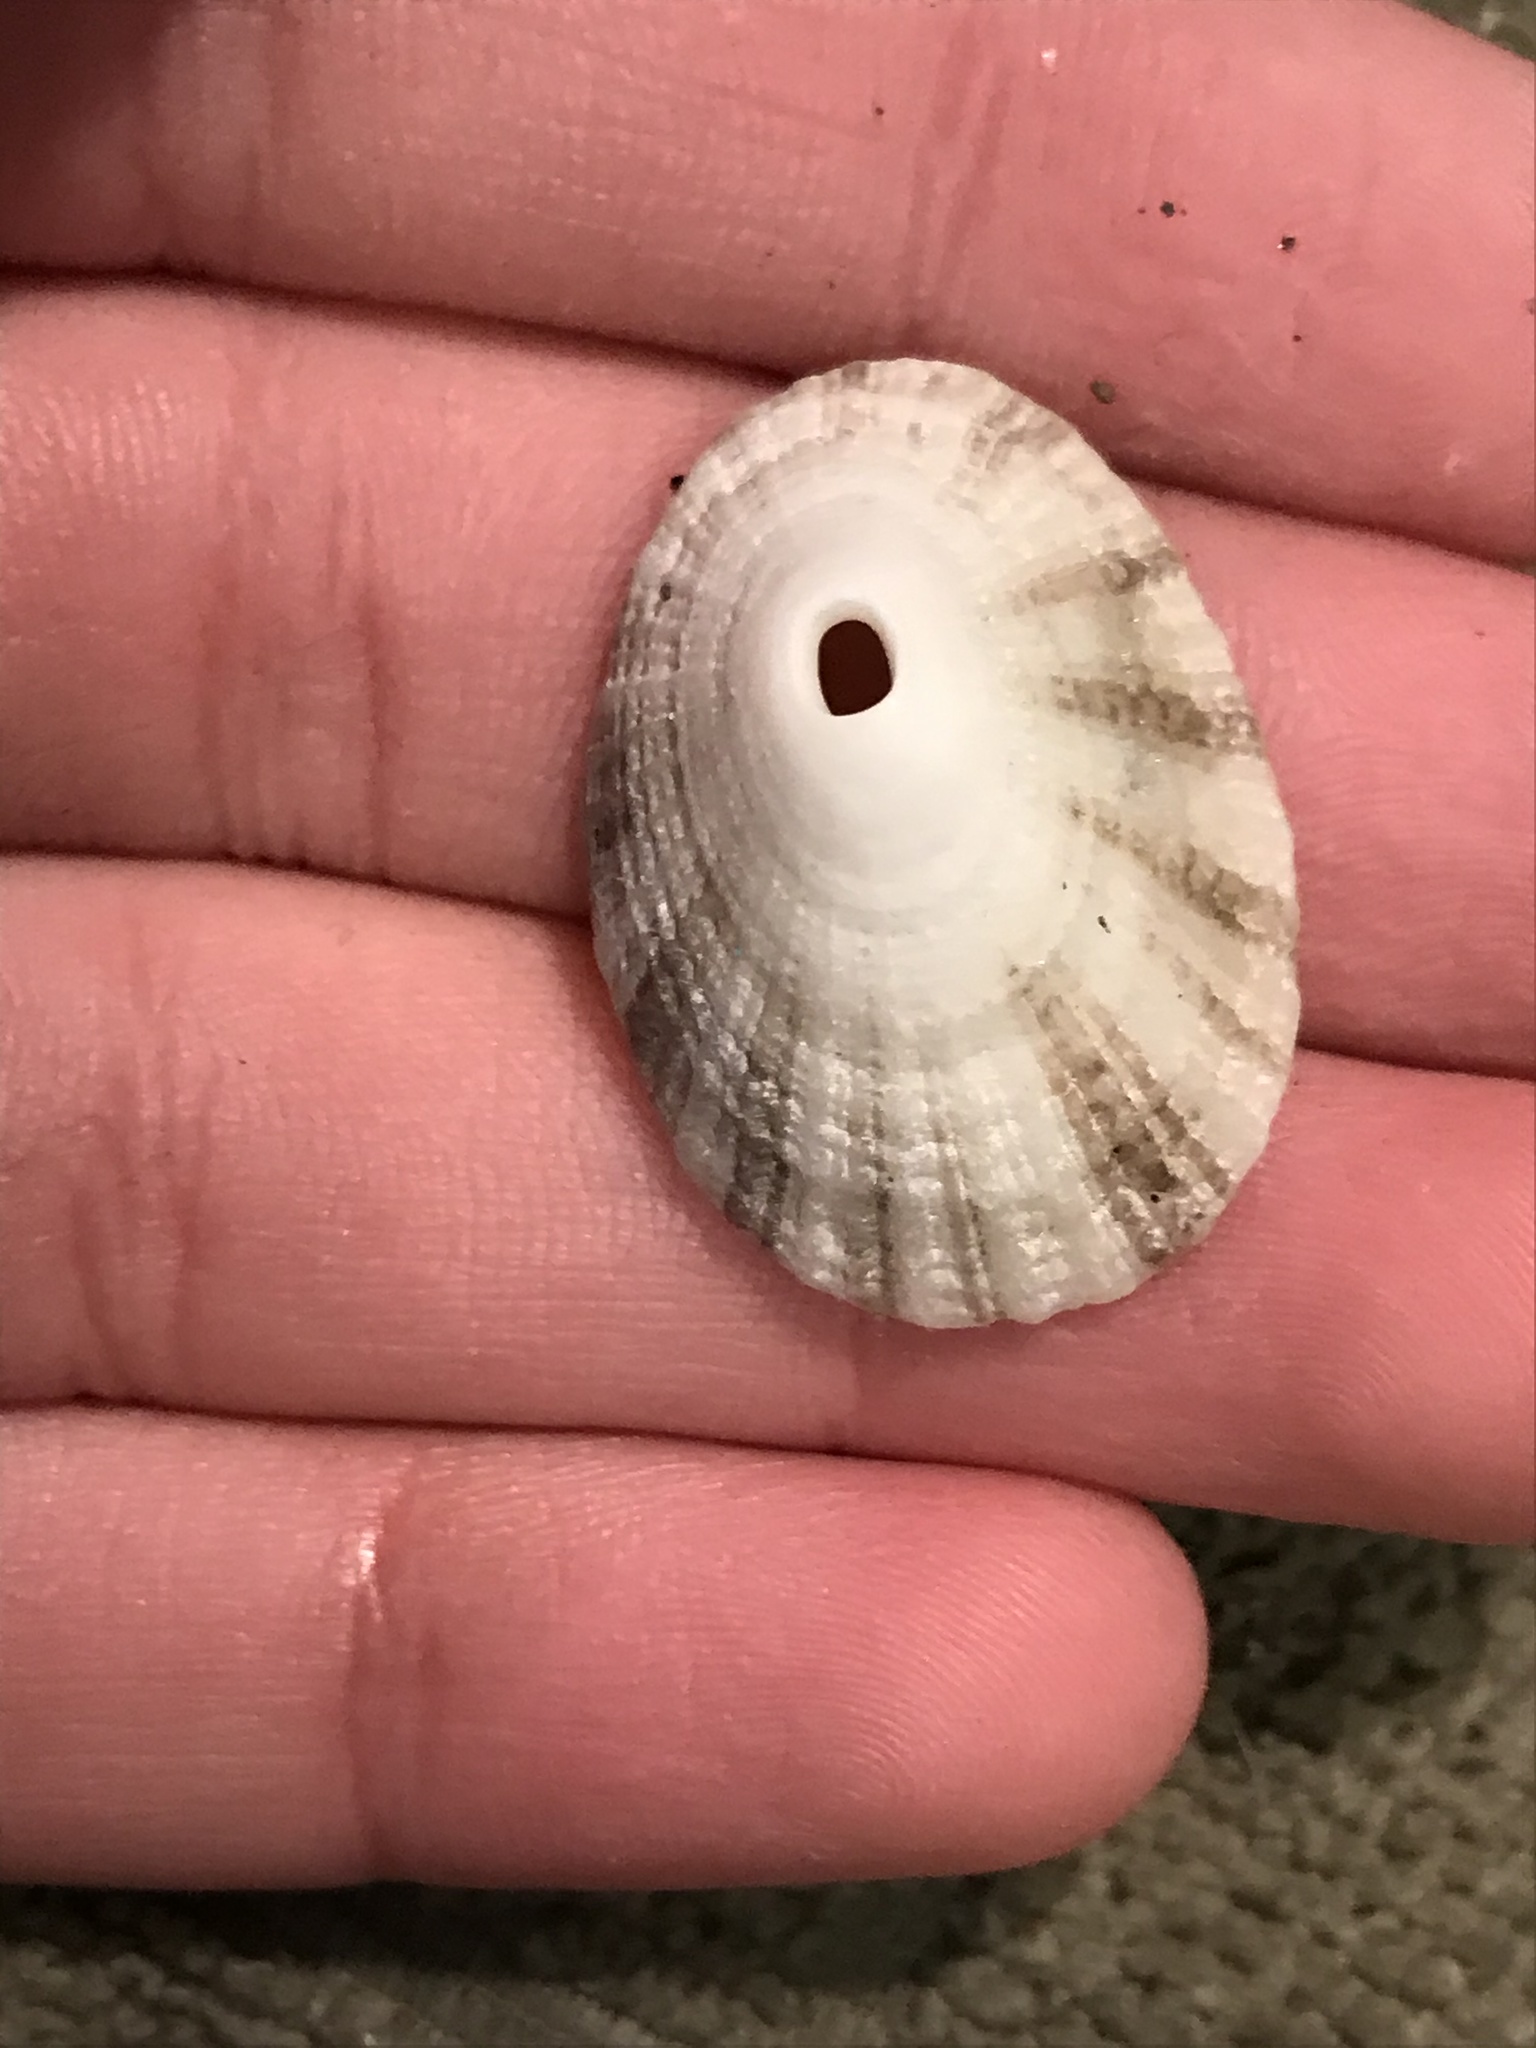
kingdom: Animalia
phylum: Mollusca
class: Gastropoda
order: Lepetellida
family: Fissurellidae
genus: Diodora
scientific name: Diodora aspera
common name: Rough keyhole limpet
